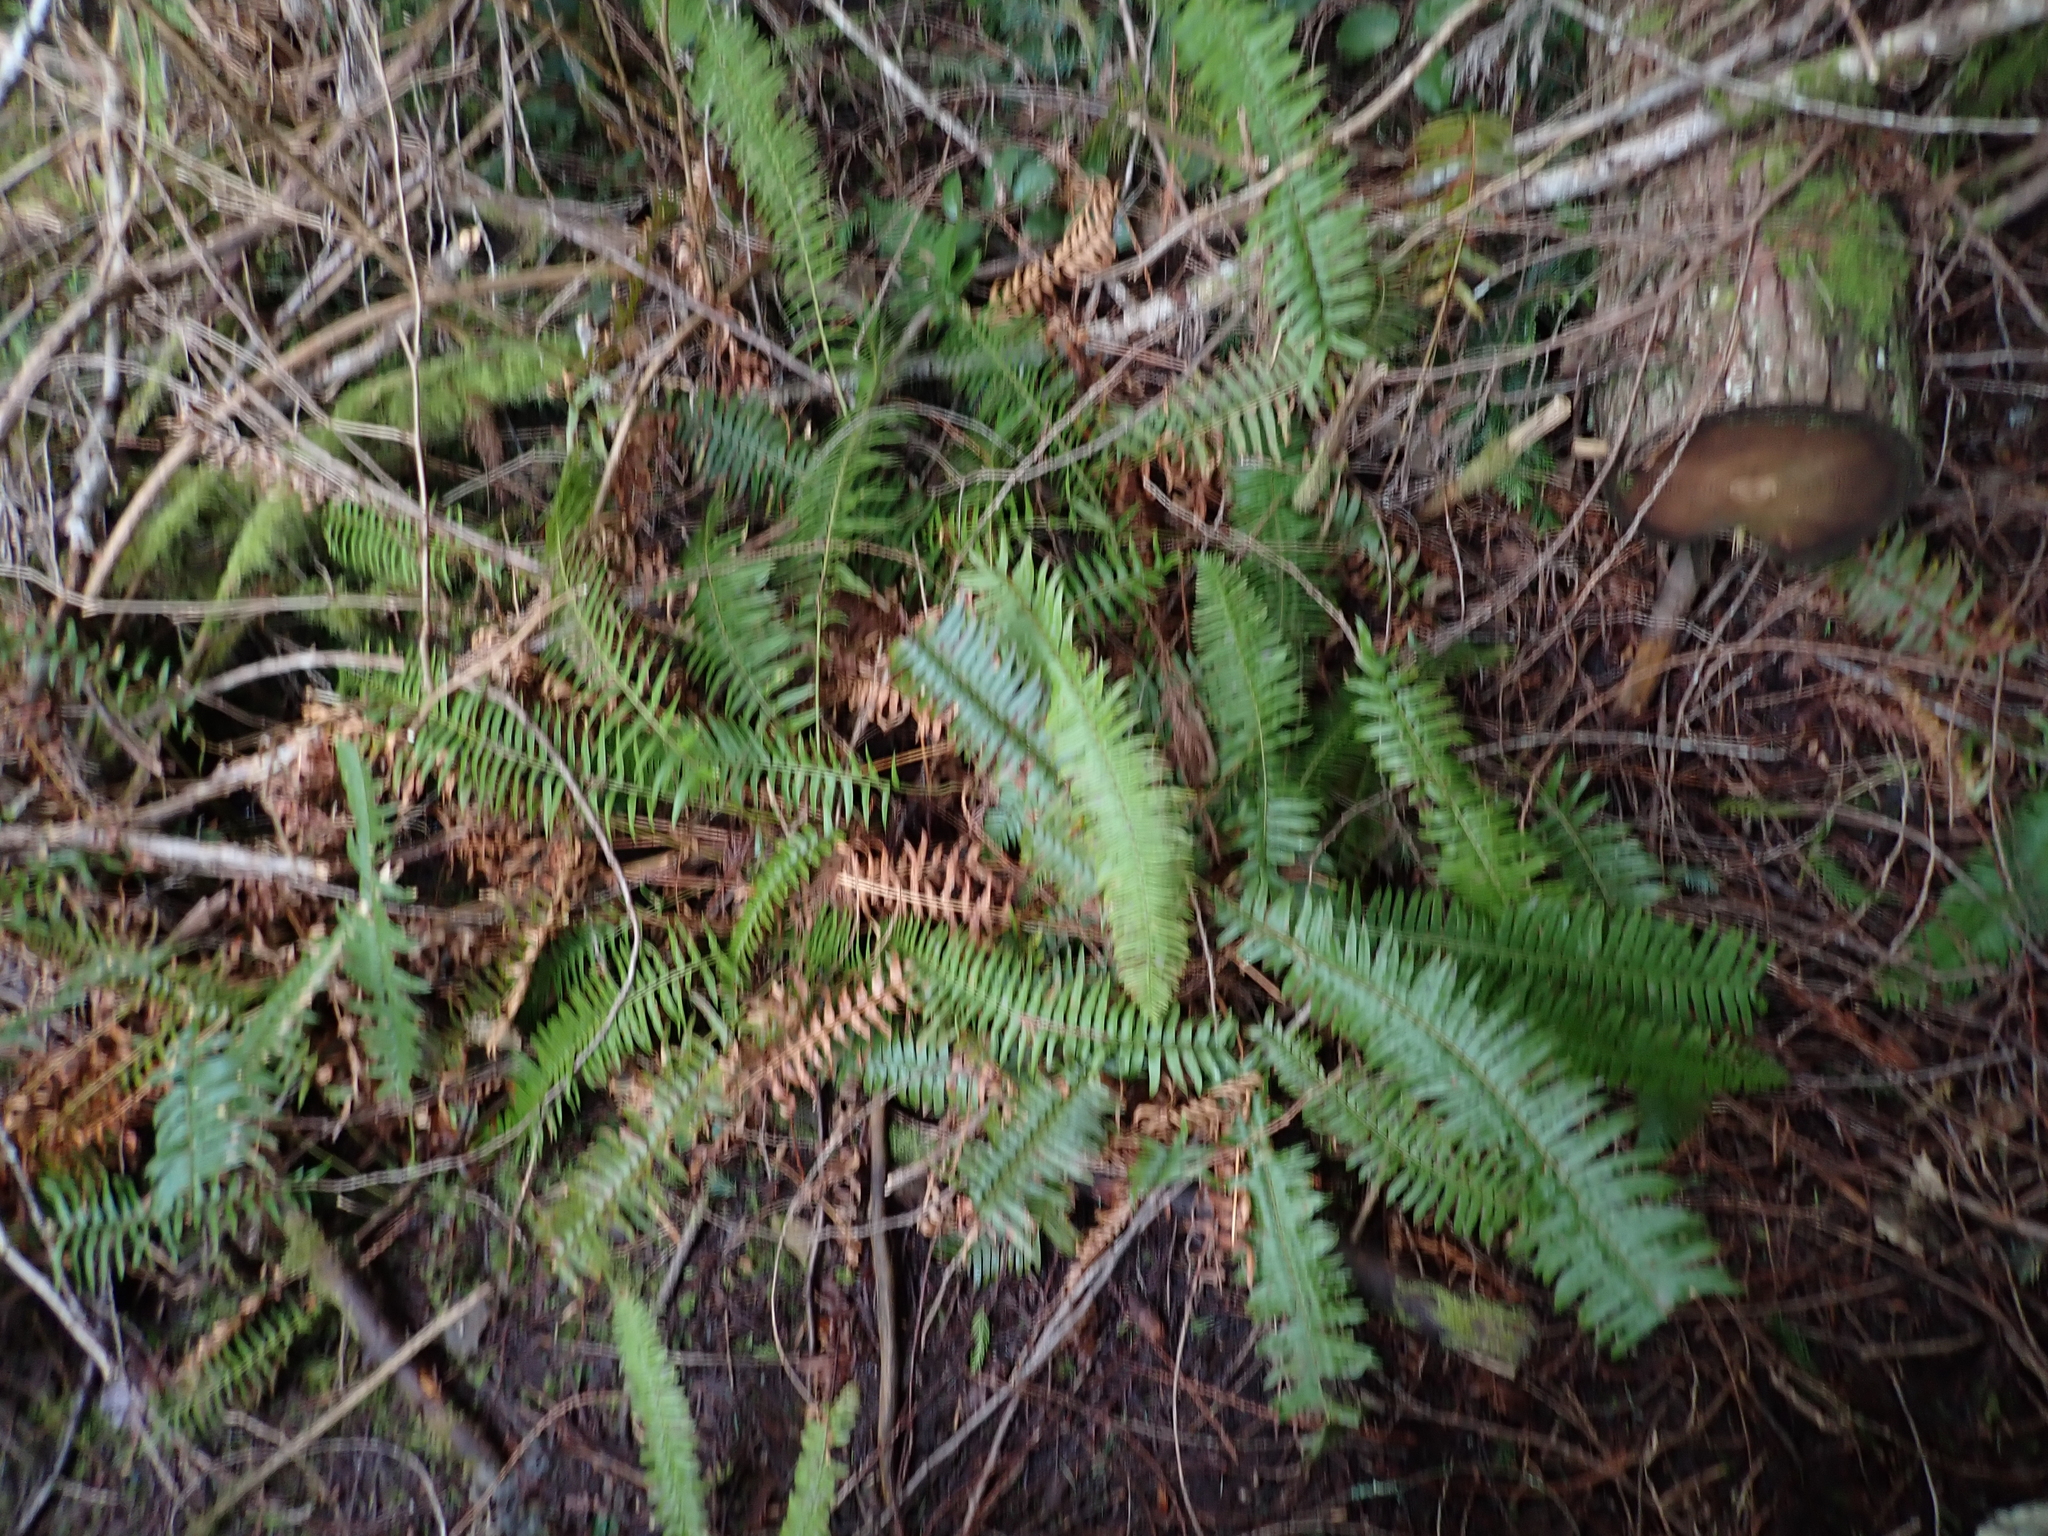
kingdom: Plantae
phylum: Tracheophyta
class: Polypodiopsida
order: Polypodiales
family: Dryopteridaceae
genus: Polystichum
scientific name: Polystichum munitum
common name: Western sword-fern
